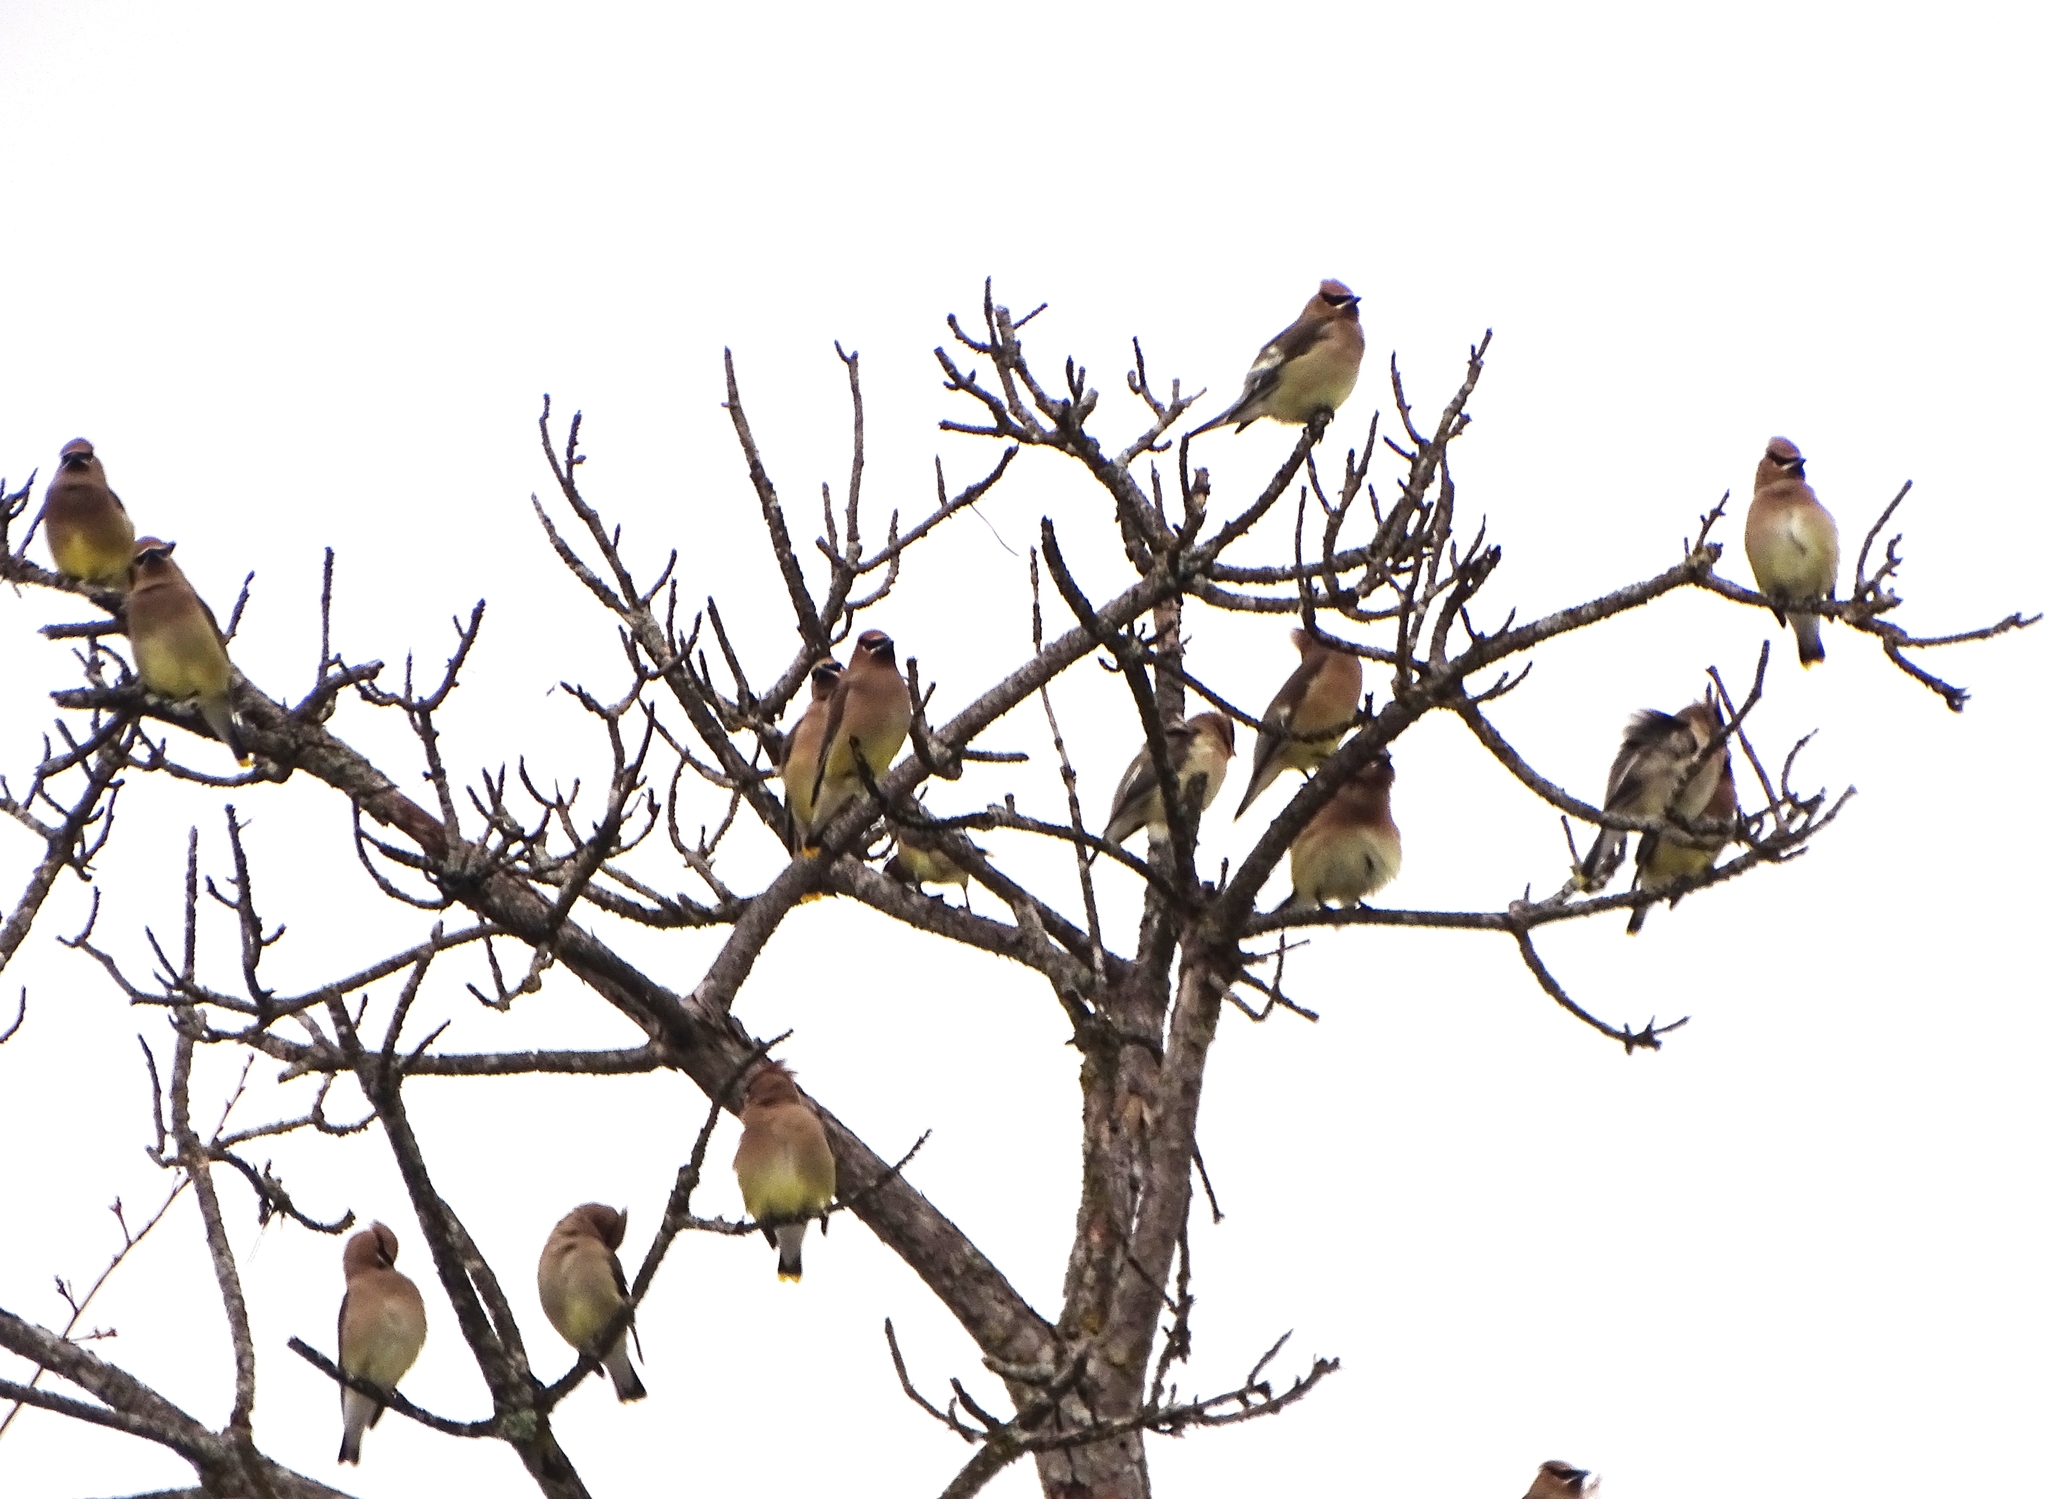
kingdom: Animalia
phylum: Chordata
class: Aves
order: Passeriformes
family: Bombycillidae
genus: Bombycilla
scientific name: Bombycilla cedrorum
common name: Cedar waxwing
